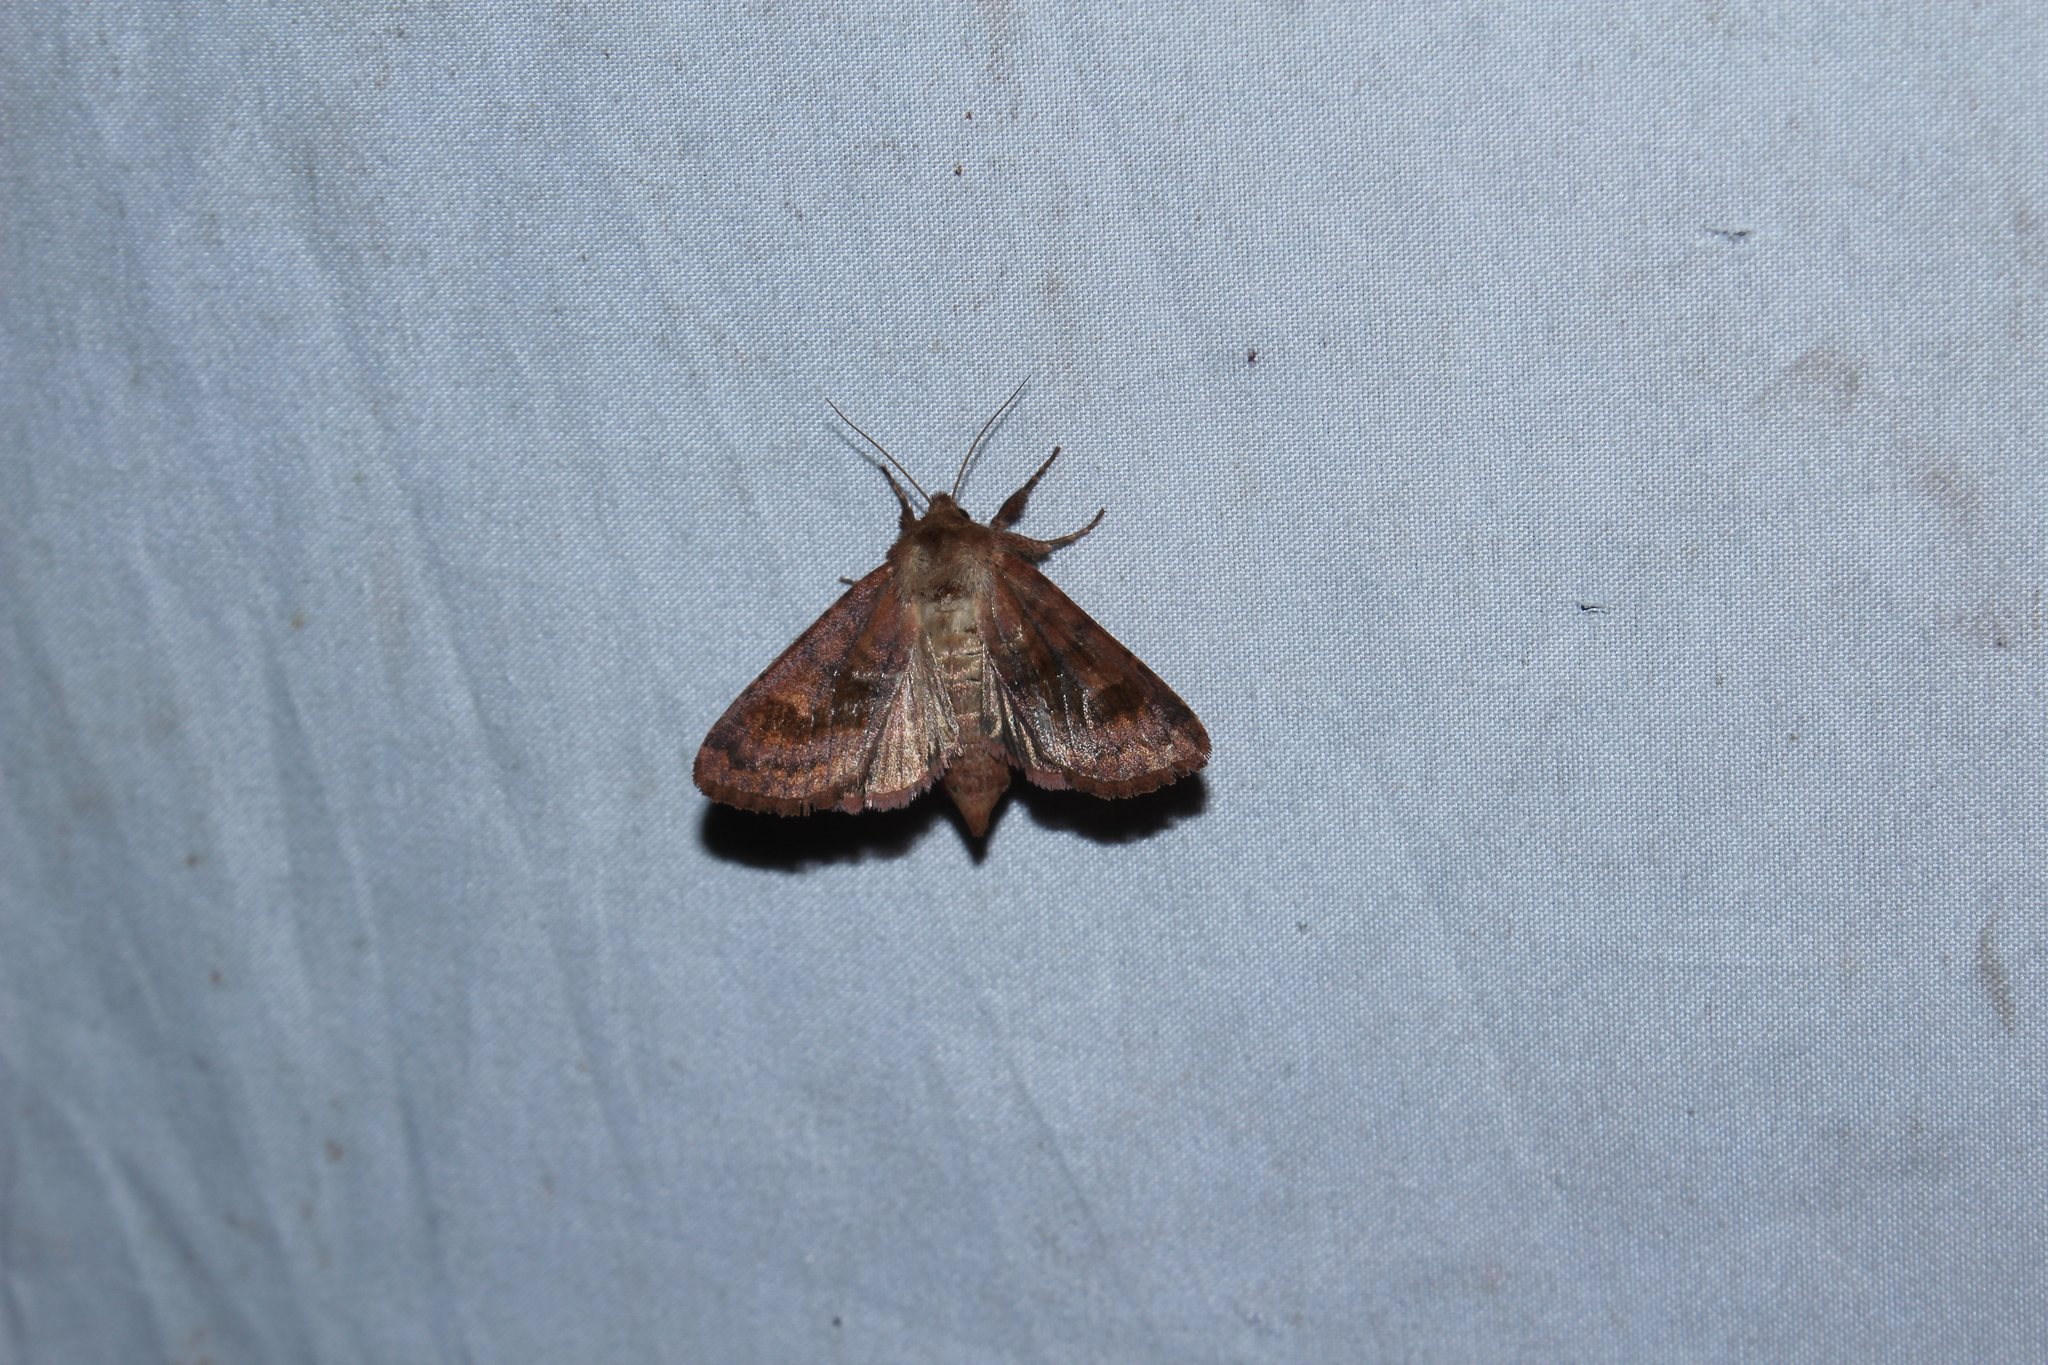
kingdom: Animalia
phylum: Arthropoda
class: Insecta
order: Lepidoptera
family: Noctuidae
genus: Nephelodes
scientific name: Nephelodes minians
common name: Bronzed cutworm
